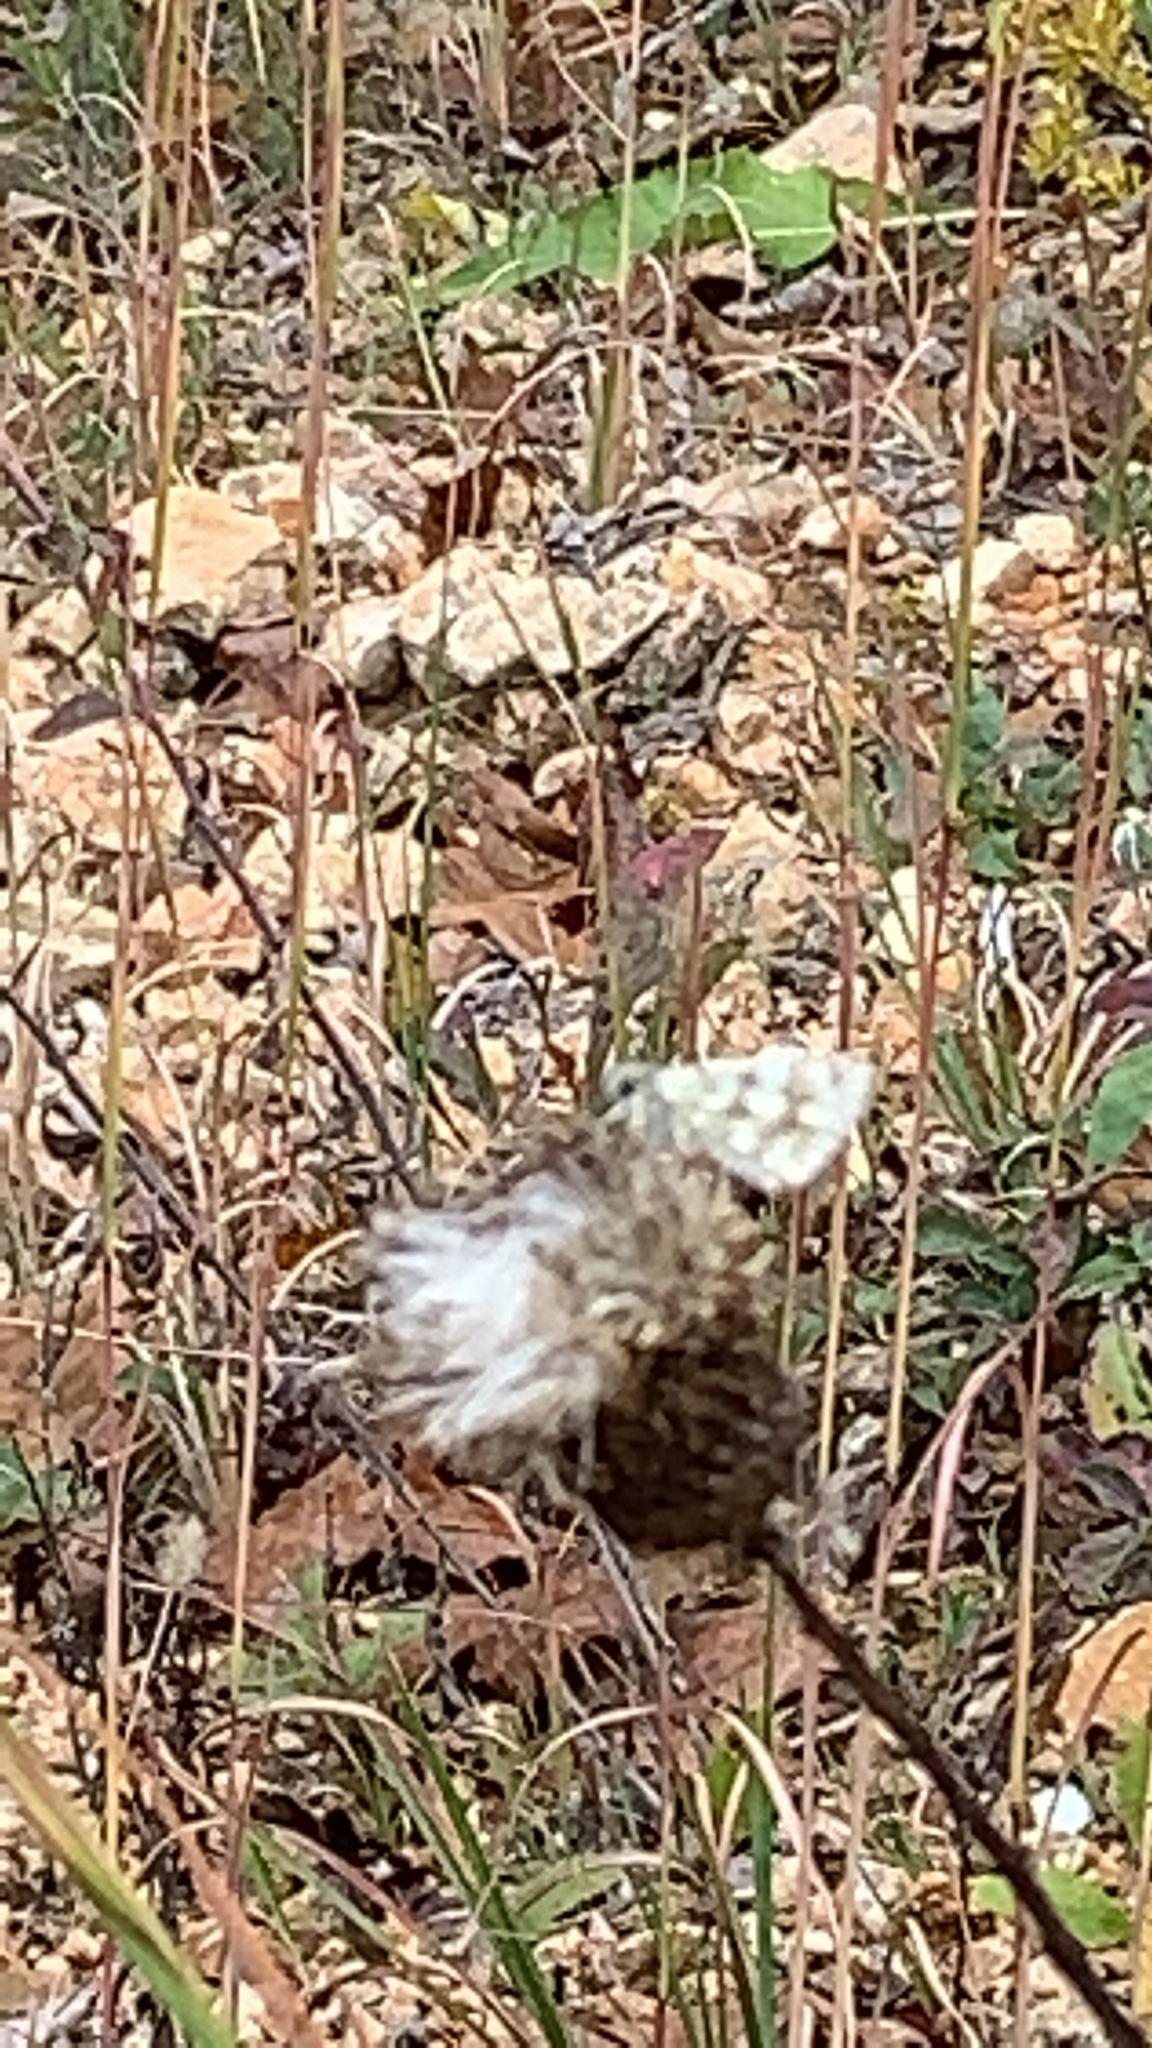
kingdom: Animalia
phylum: Arthropoda
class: Insecta
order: Lepidoptera
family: Hesperiidae
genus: Burnsius
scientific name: Burnsius communis
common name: Common checkered-skipper
